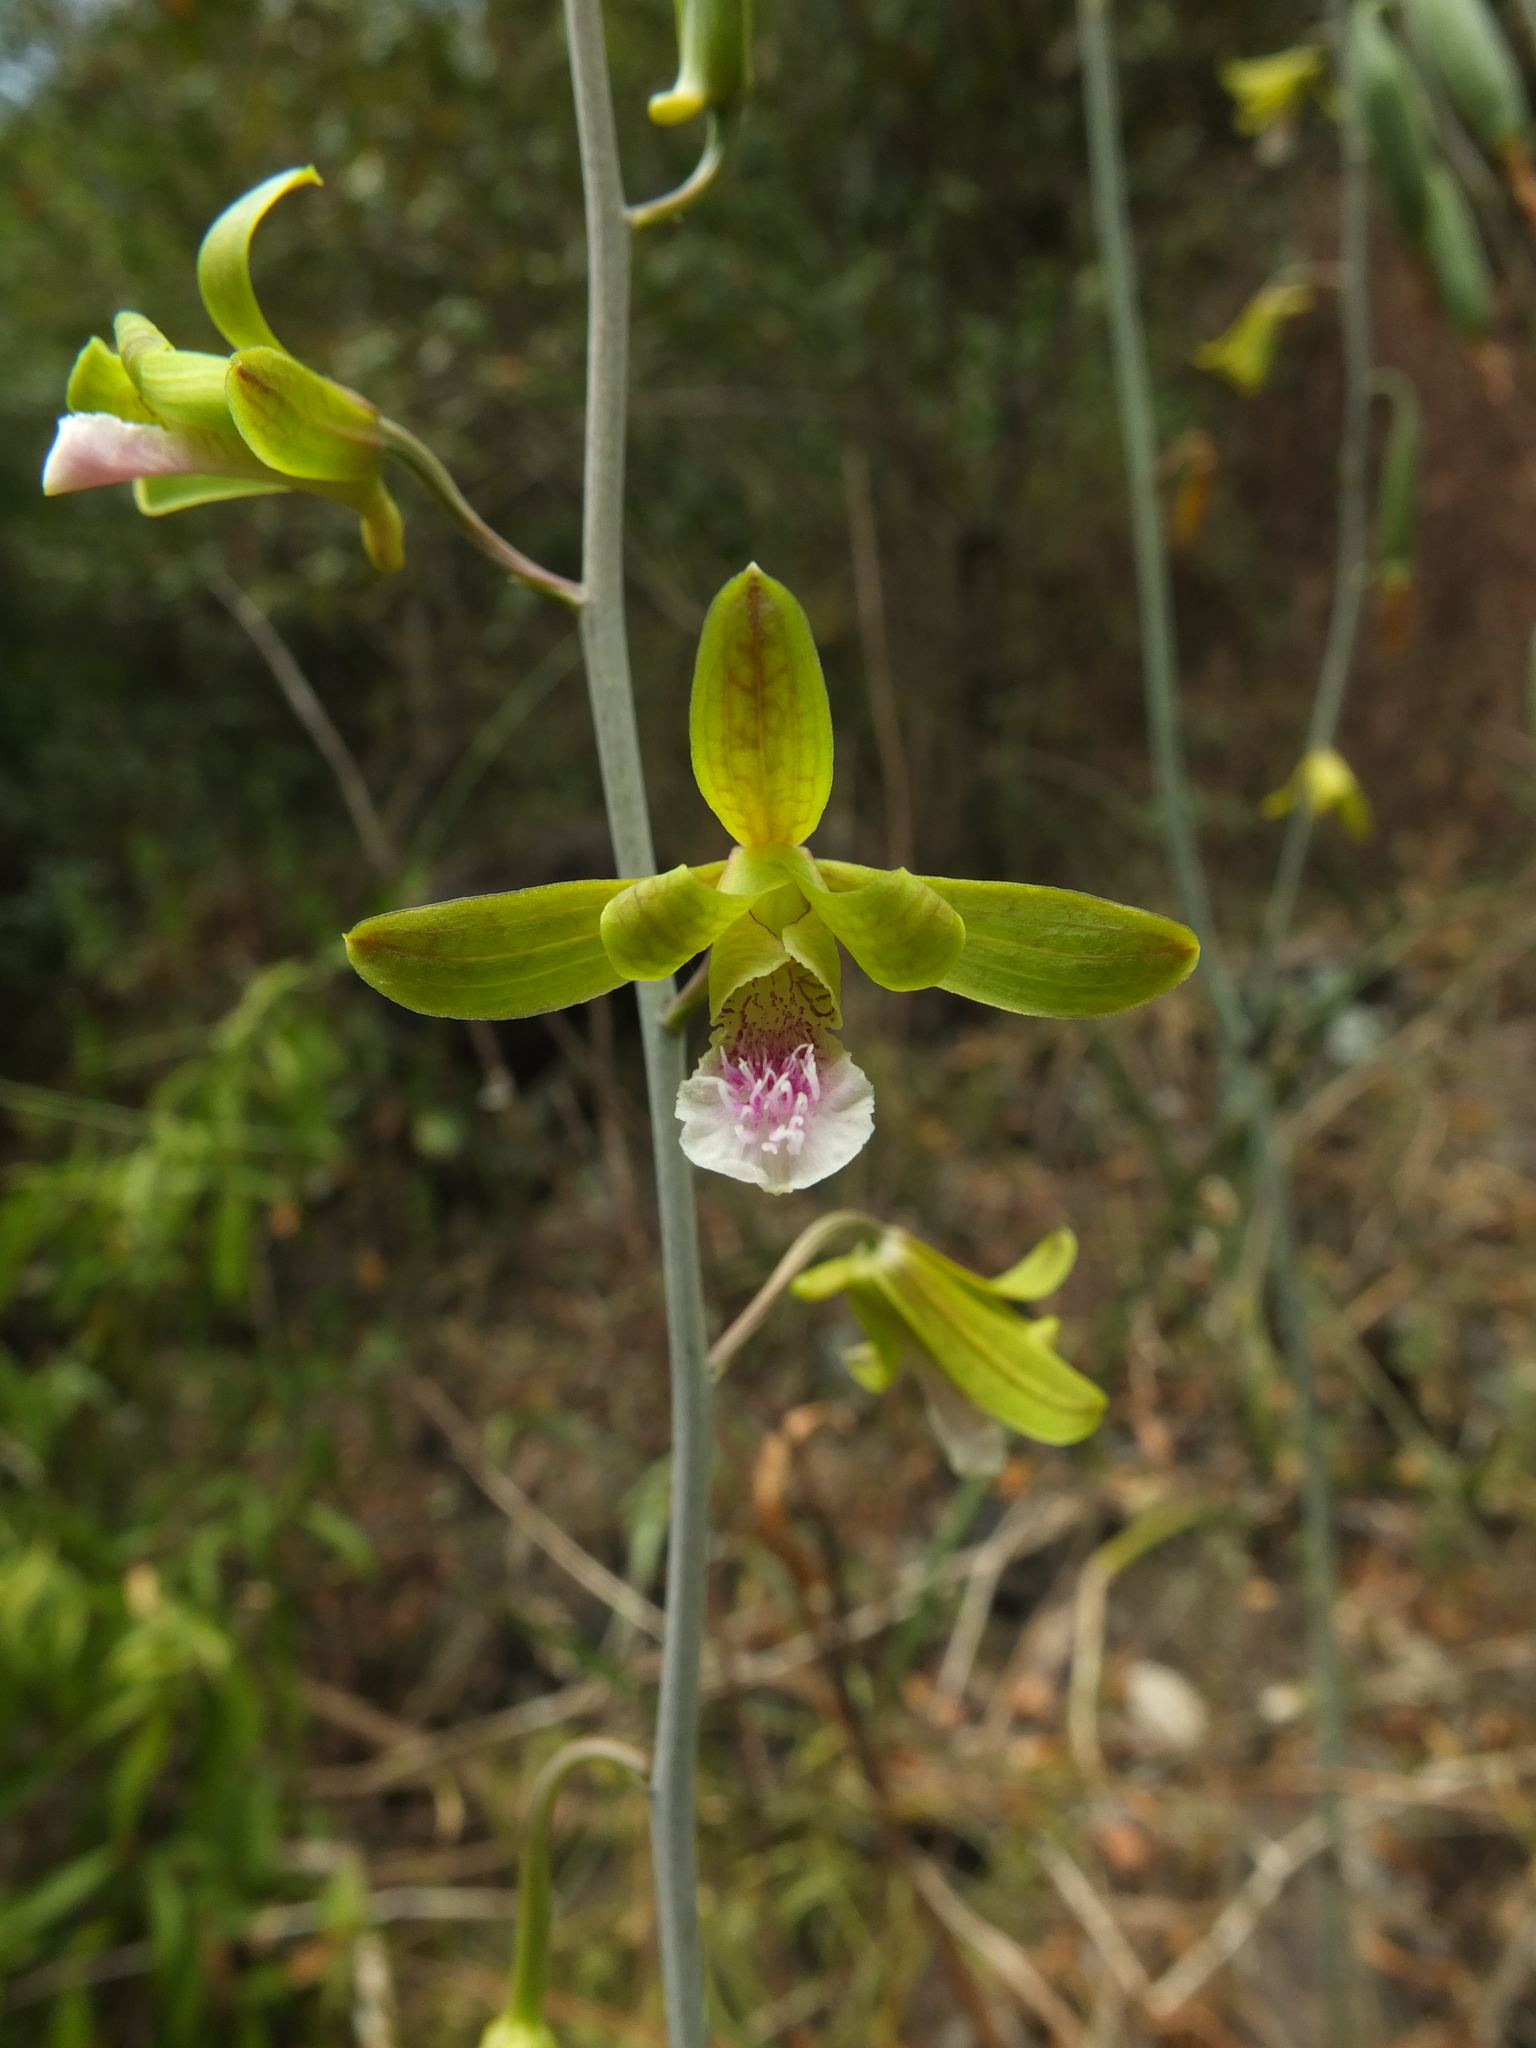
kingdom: Plantae
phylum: Tracheophyta
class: Liliopsida
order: Asparagales
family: Orchidaceae
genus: Eulophia
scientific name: Eulophia epidendraea
